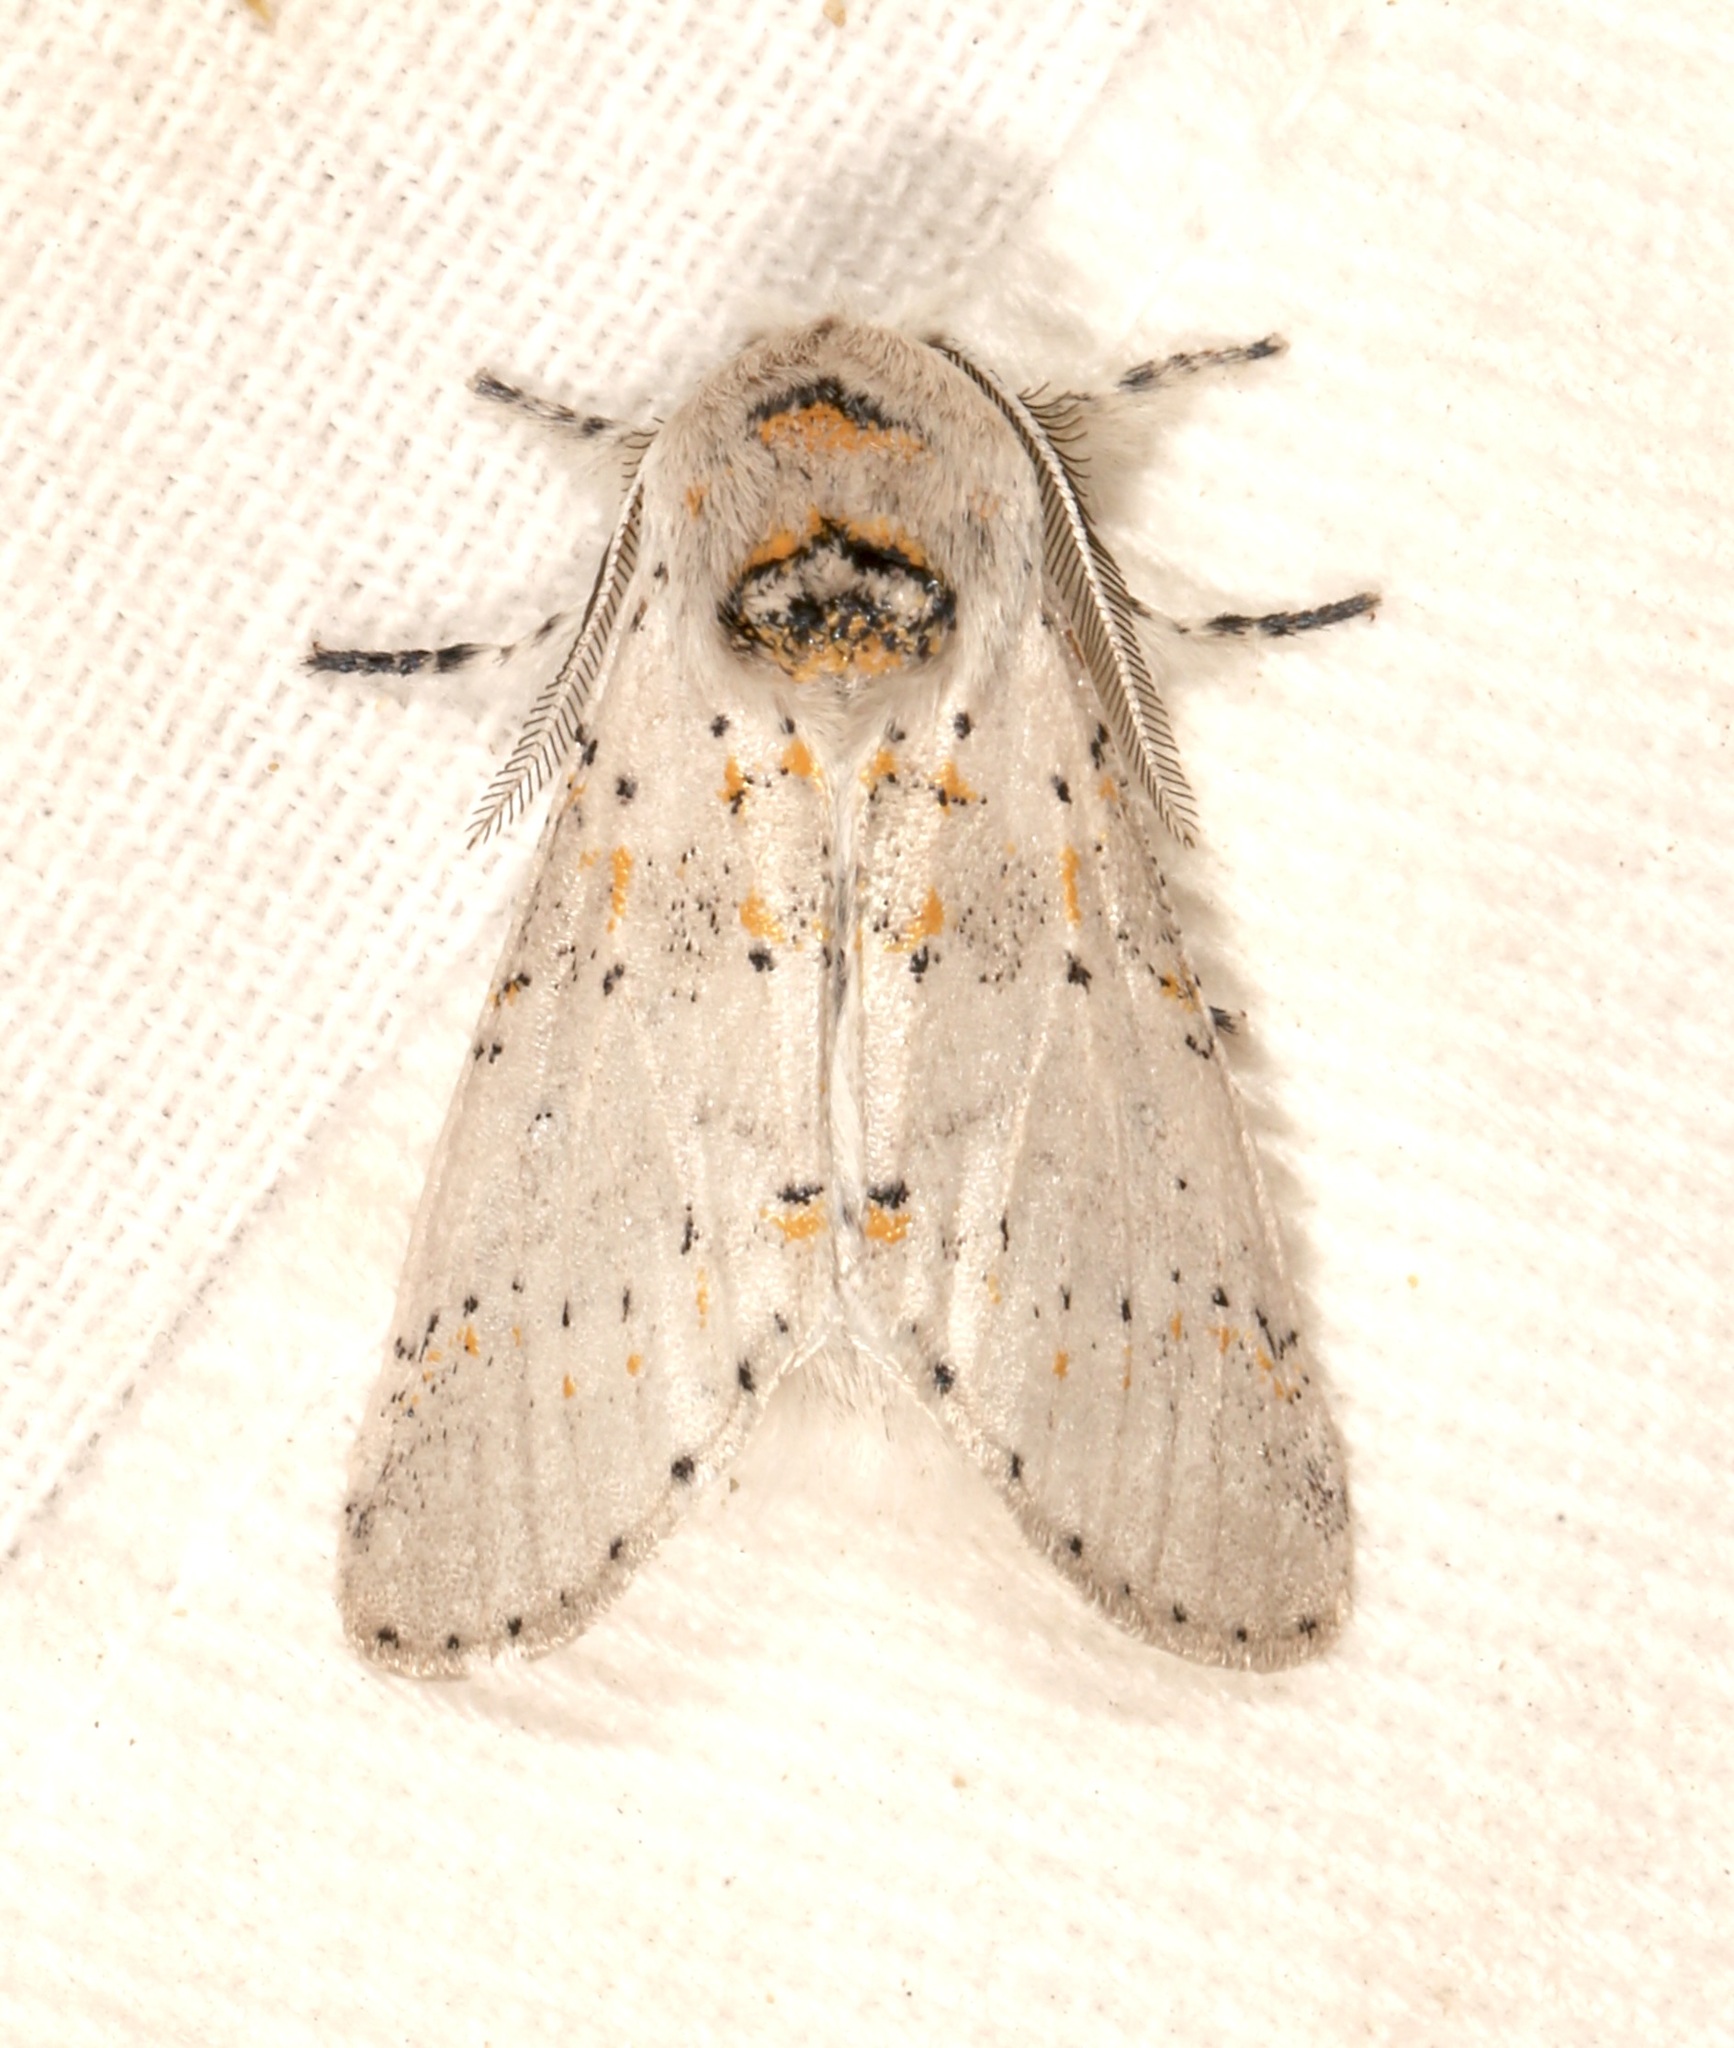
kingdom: Animalia
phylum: Arthropoda
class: Insecta
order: Lepidoptera
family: Notodontidae
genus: Furcula
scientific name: Furcula cinerea
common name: Gray furcula
